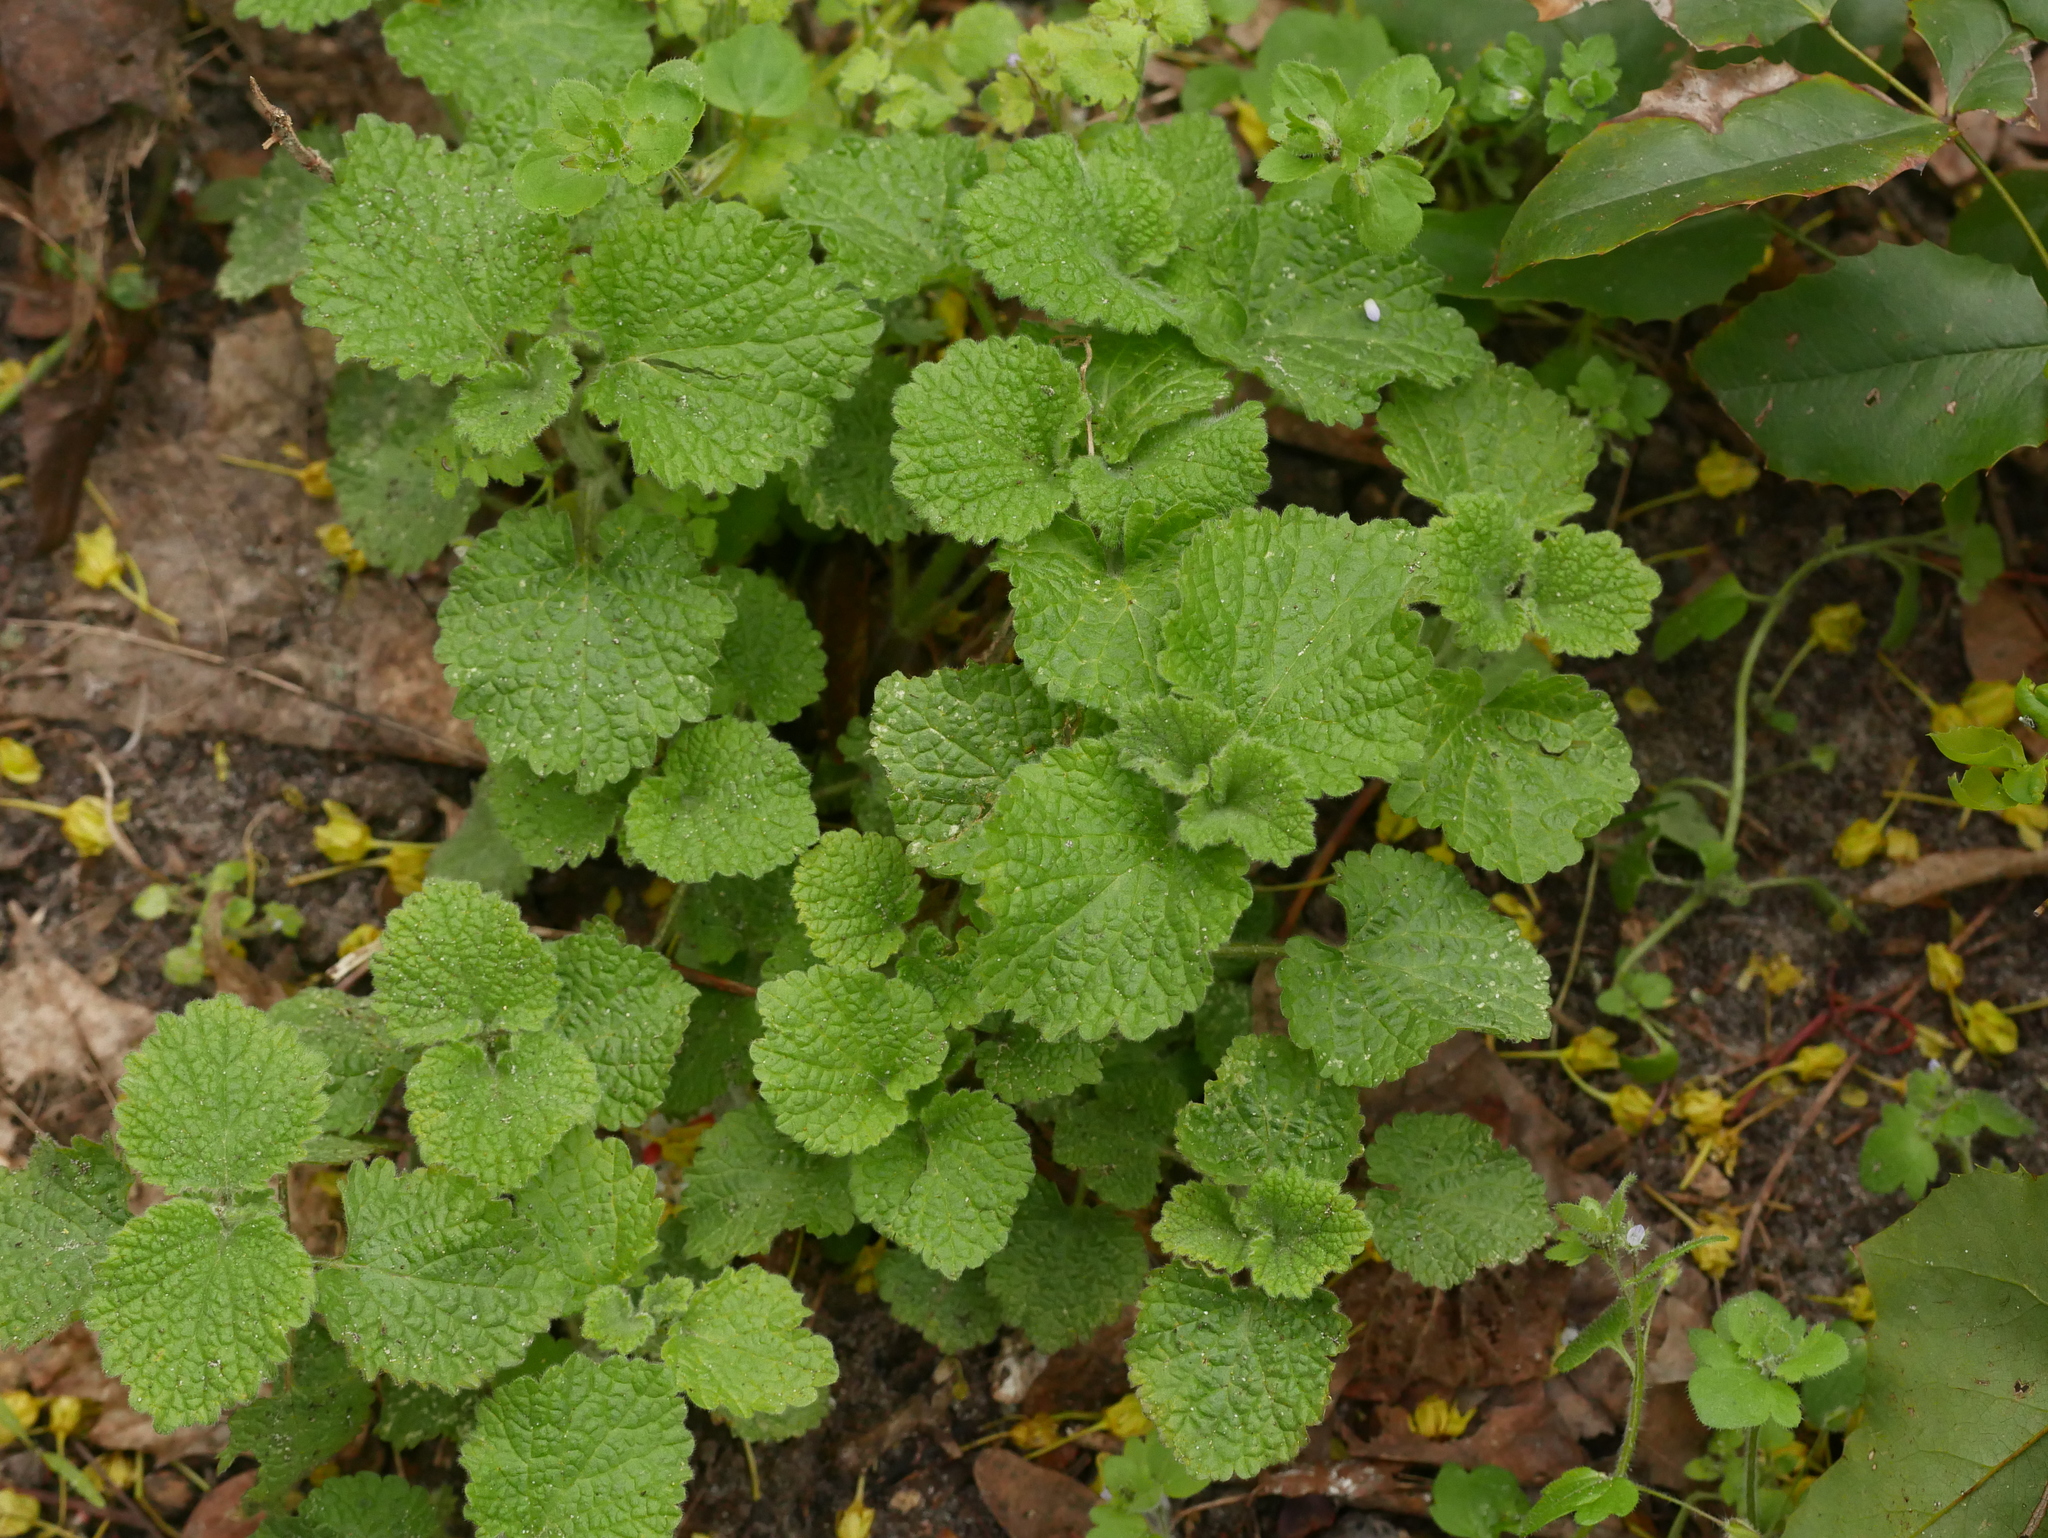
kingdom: Plantae
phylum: Tracheophyta
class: Magnoliopsida
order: Lamiales
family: Lamiaceae
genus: Ballota
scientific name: Ballota nigra
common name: Black horehound
